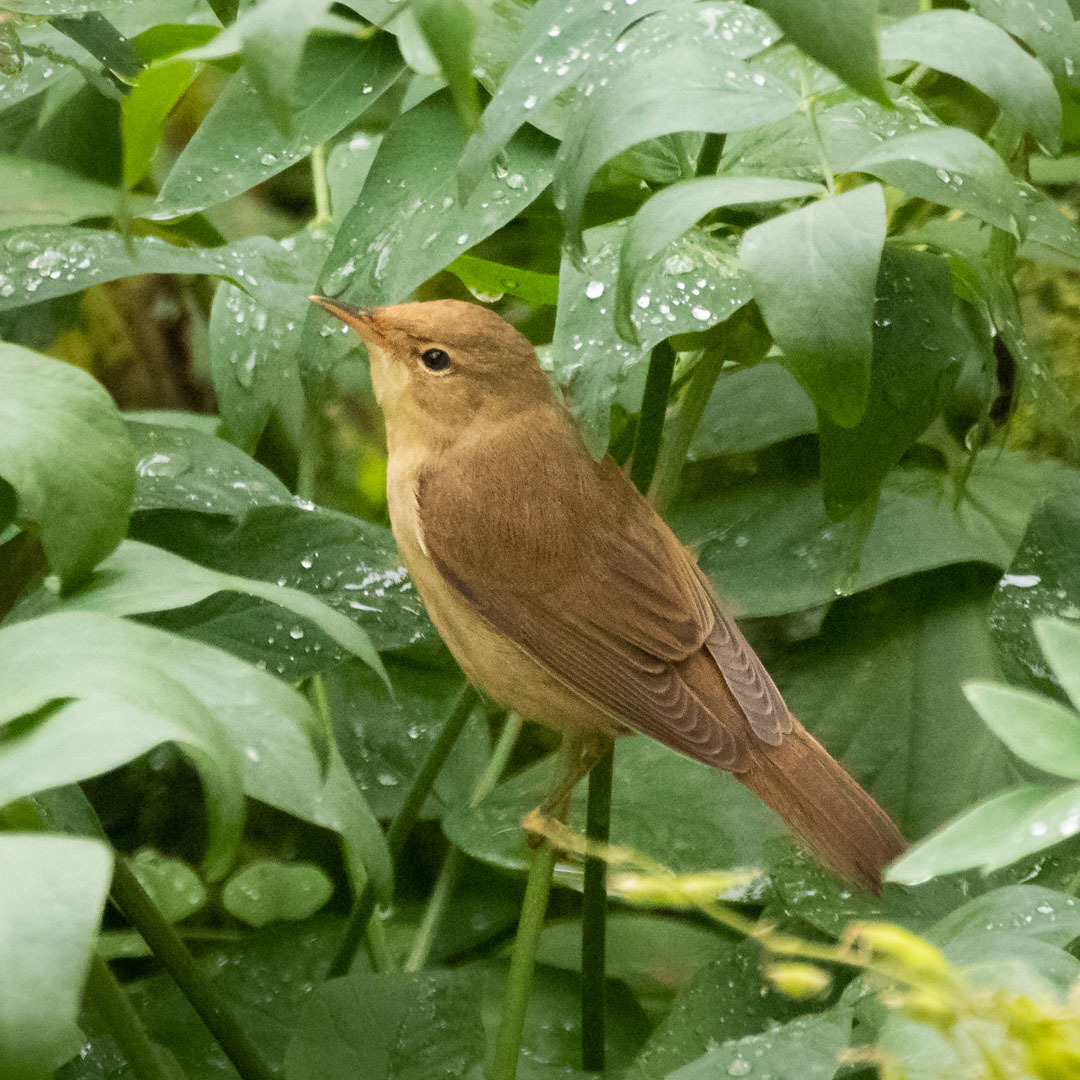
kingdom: Animalia
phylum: Chordata
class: Aves
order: Passeriformes
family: Acrocephalidae
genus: Acrocephalus
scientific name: Acrocephalus palustris
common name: Marsh warbler
